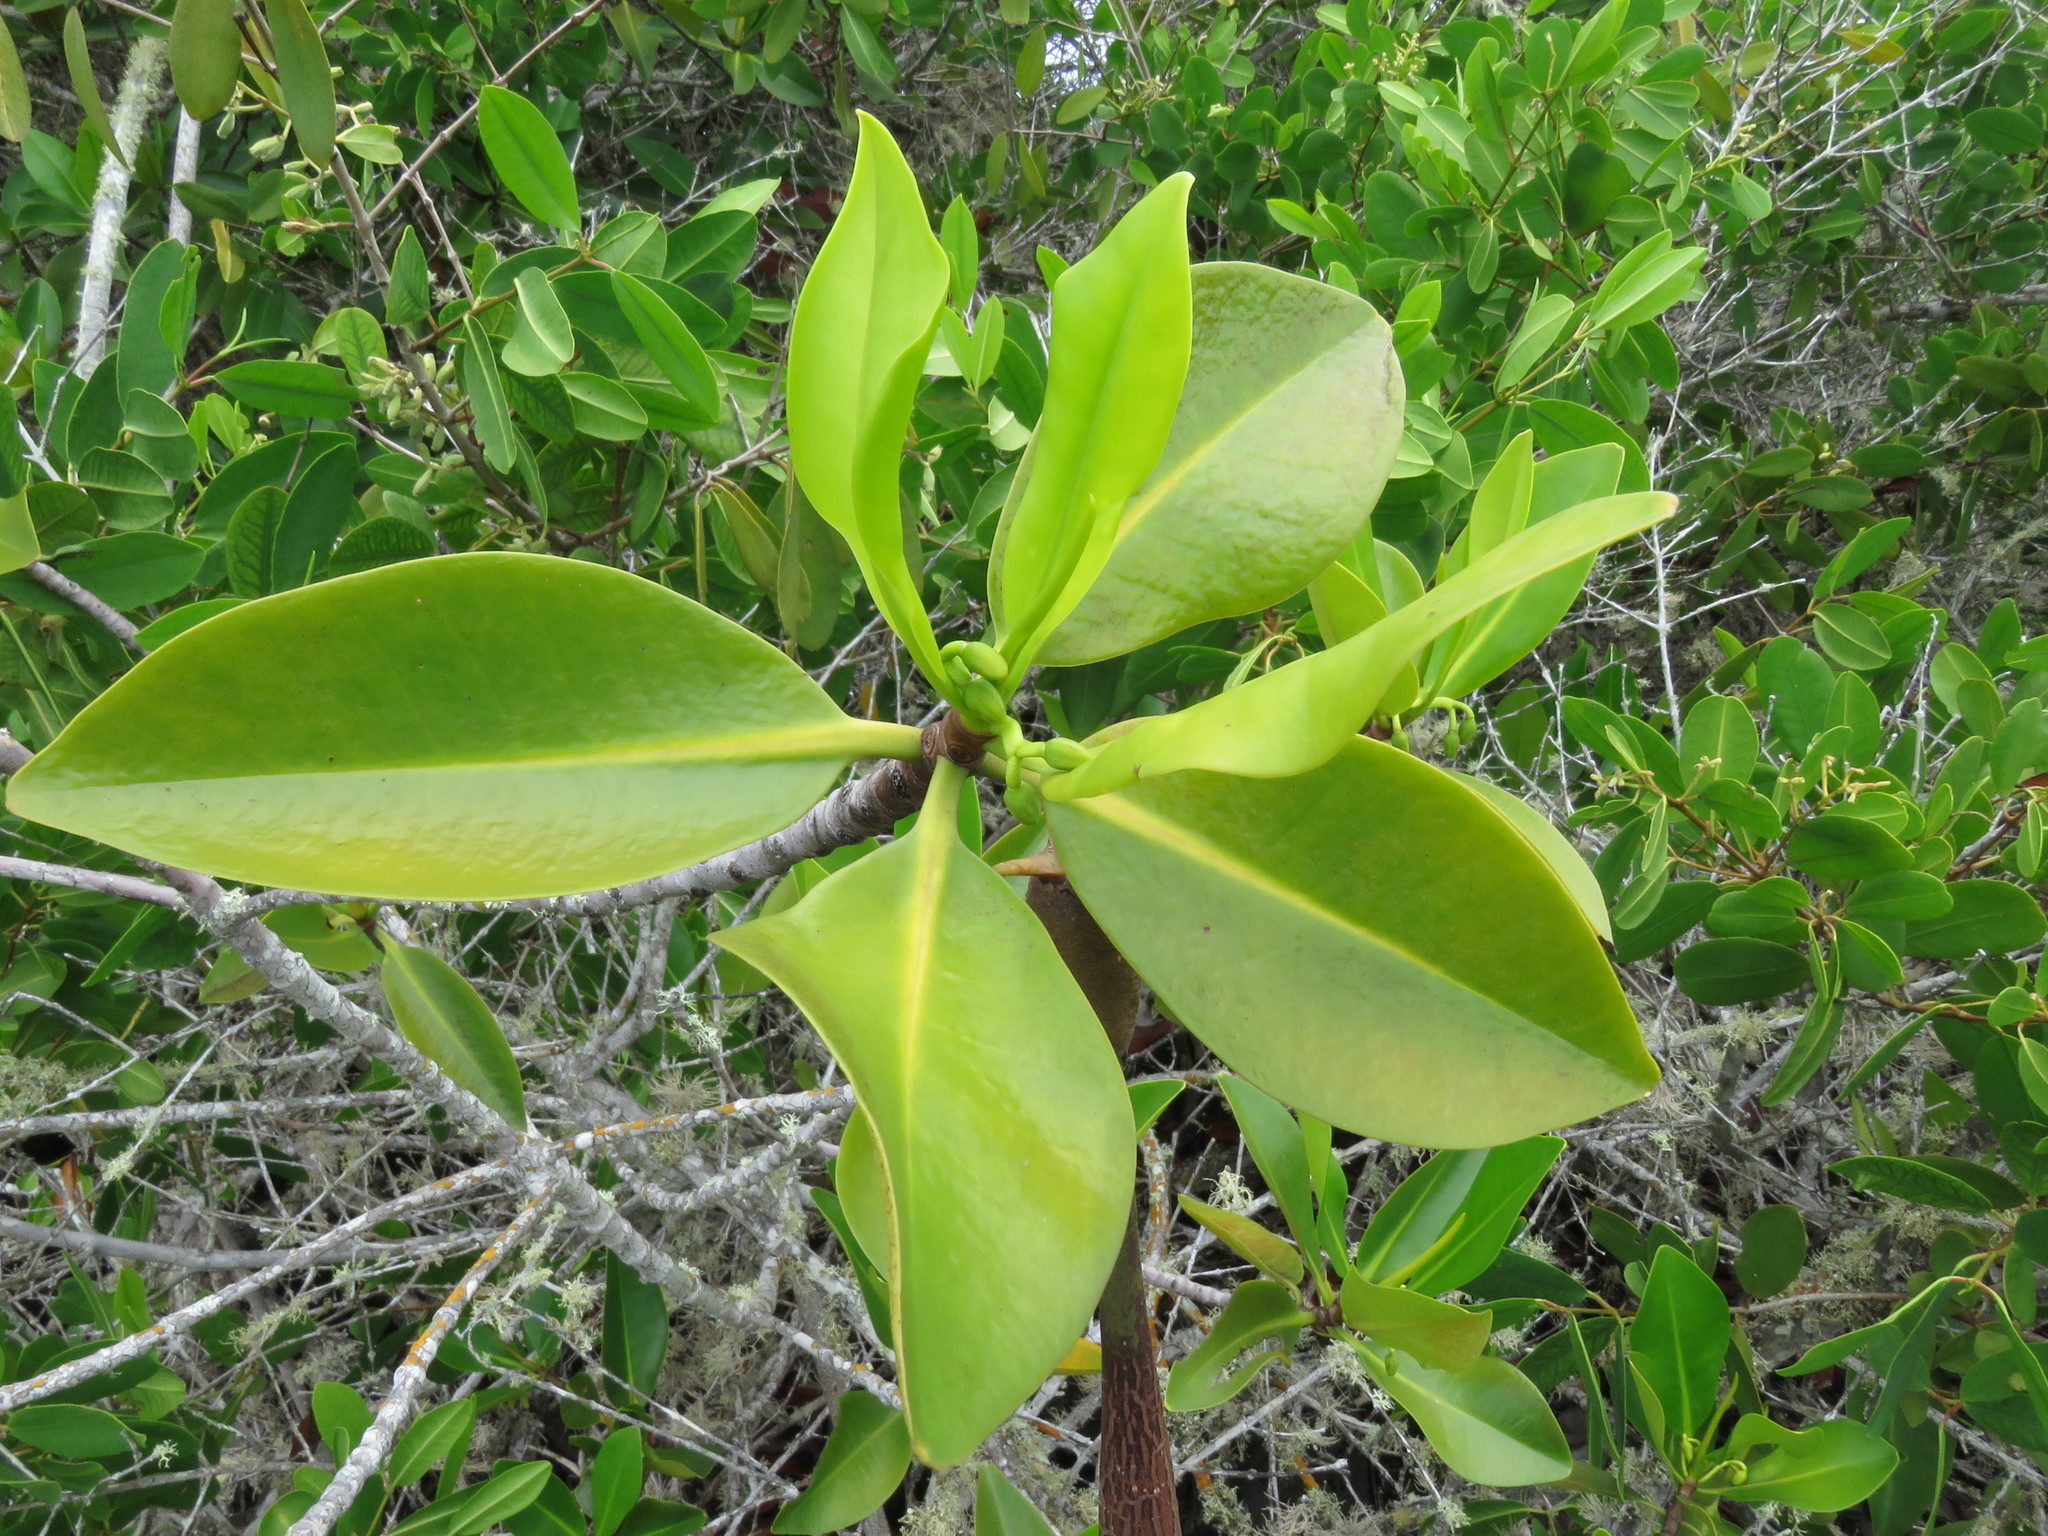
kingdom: Plantae
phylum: Tracheophyta
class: Magnoliopsida
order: Malpighiales
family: Rhizophoraceae
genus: Rhizophora
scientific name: Rhizophora mangle
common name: Red mangrove
